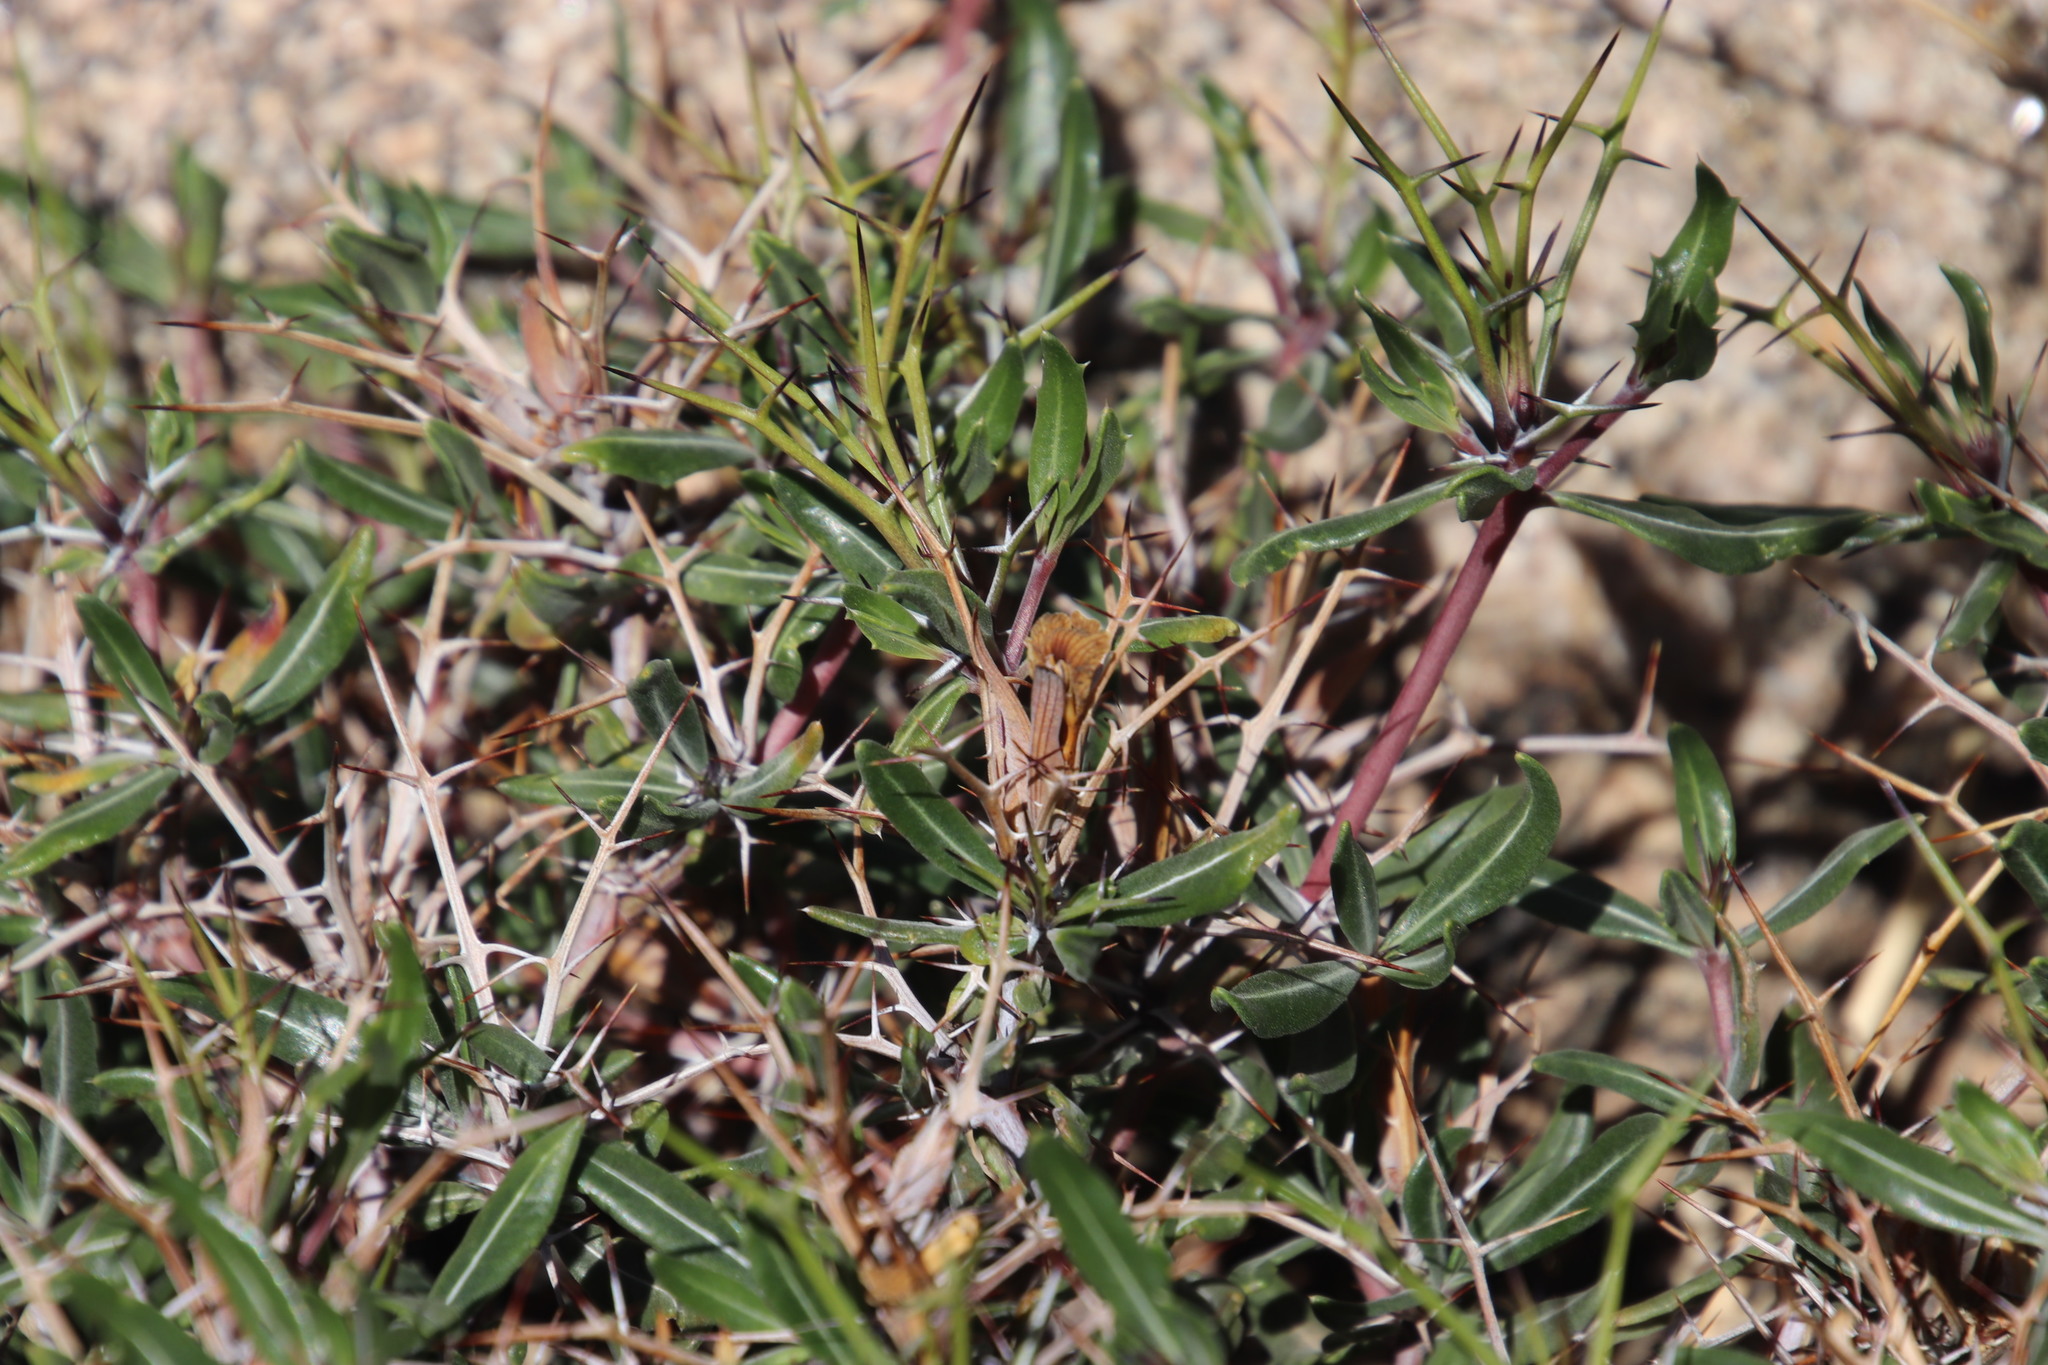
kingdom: Plantae
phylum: Tracheophyta
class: Magnoliopsida
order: Lamiales
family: Acanthaceae
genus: Blepharis
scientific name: Blepharis macra
